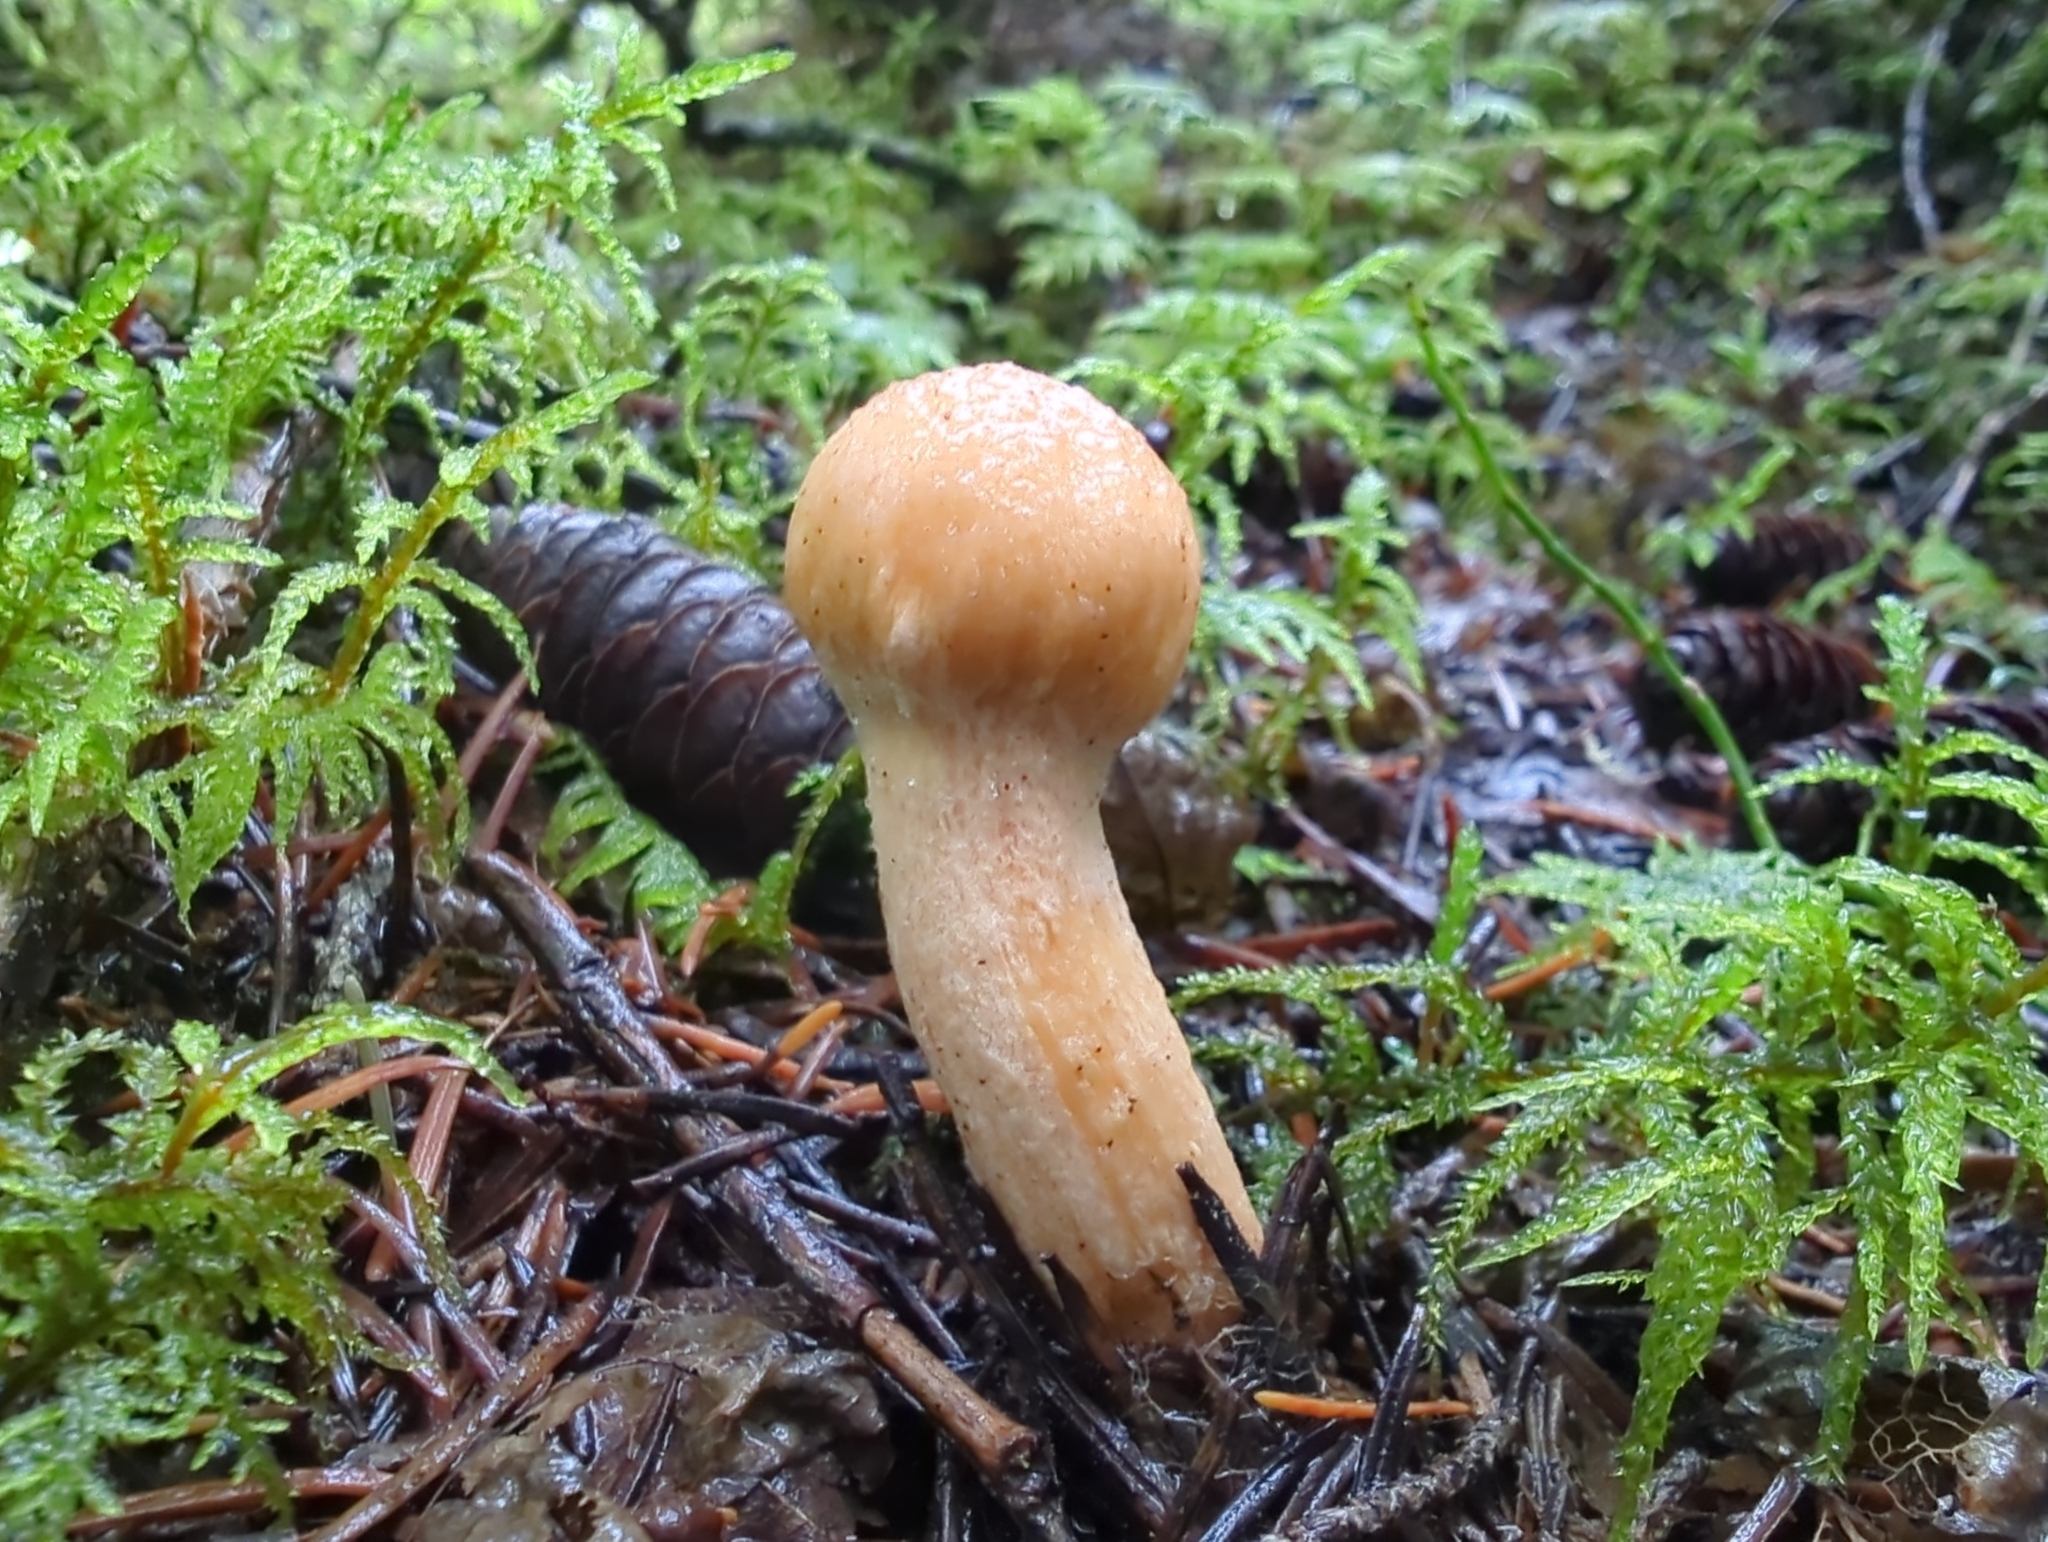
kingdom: Fungi
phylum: Basidiomycota
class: Agaricomycetes
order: Boletales
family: Gomphidiaceae
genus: Chroogomphus
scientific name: Chroogomphus tomentosus
